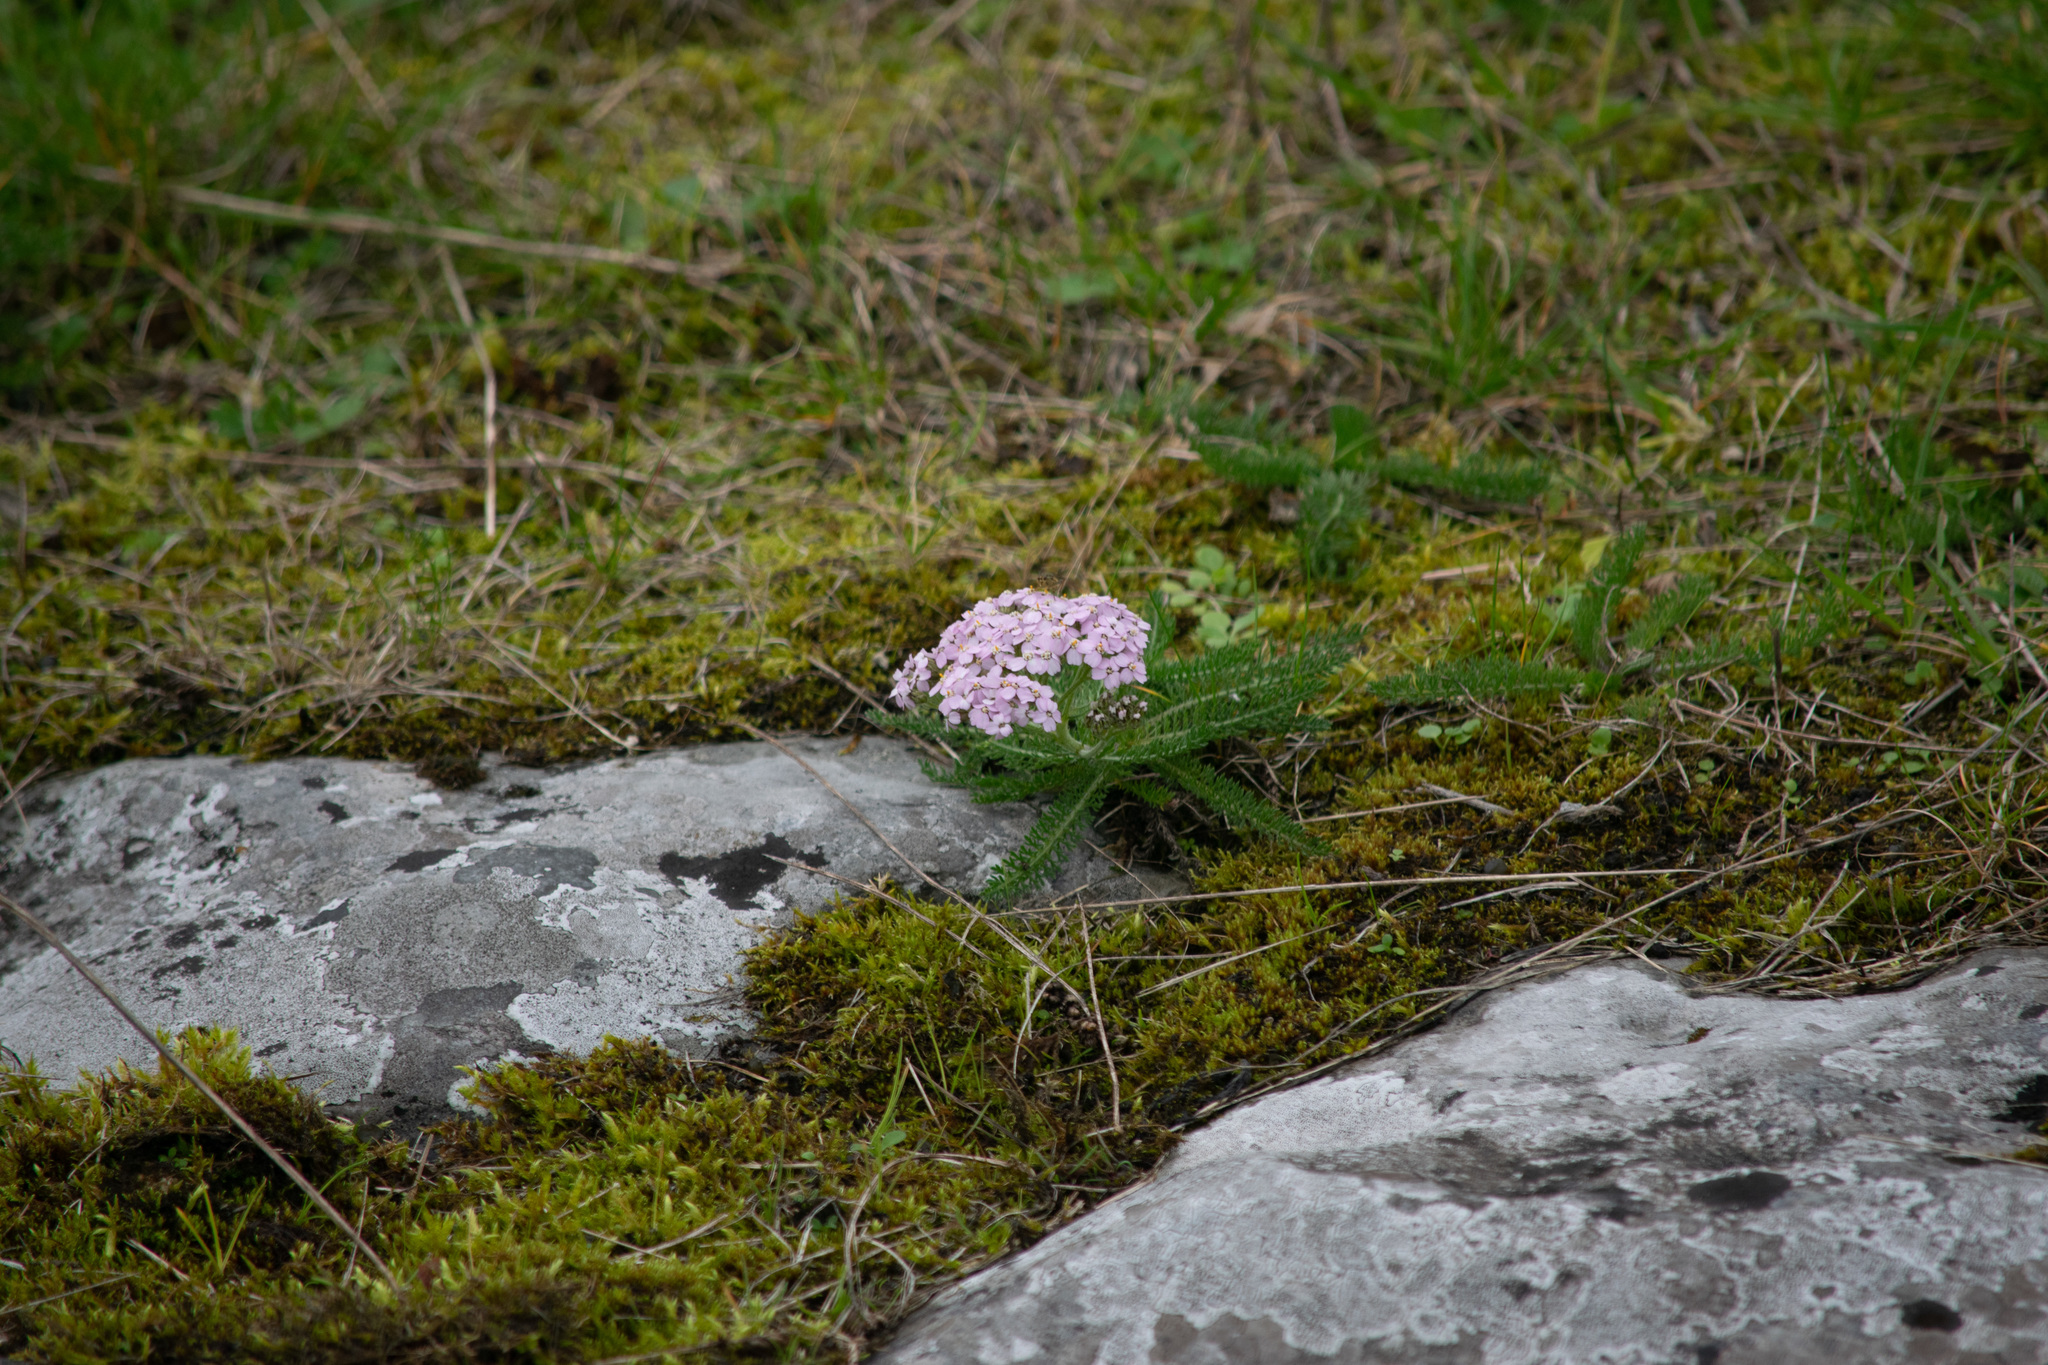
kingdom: Plantae
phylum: Tracheophyta
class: Magnoliopsida
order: Asterales
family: Asteraceae
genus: Achillea
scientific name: Achillea millefolium
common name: Yarrow
